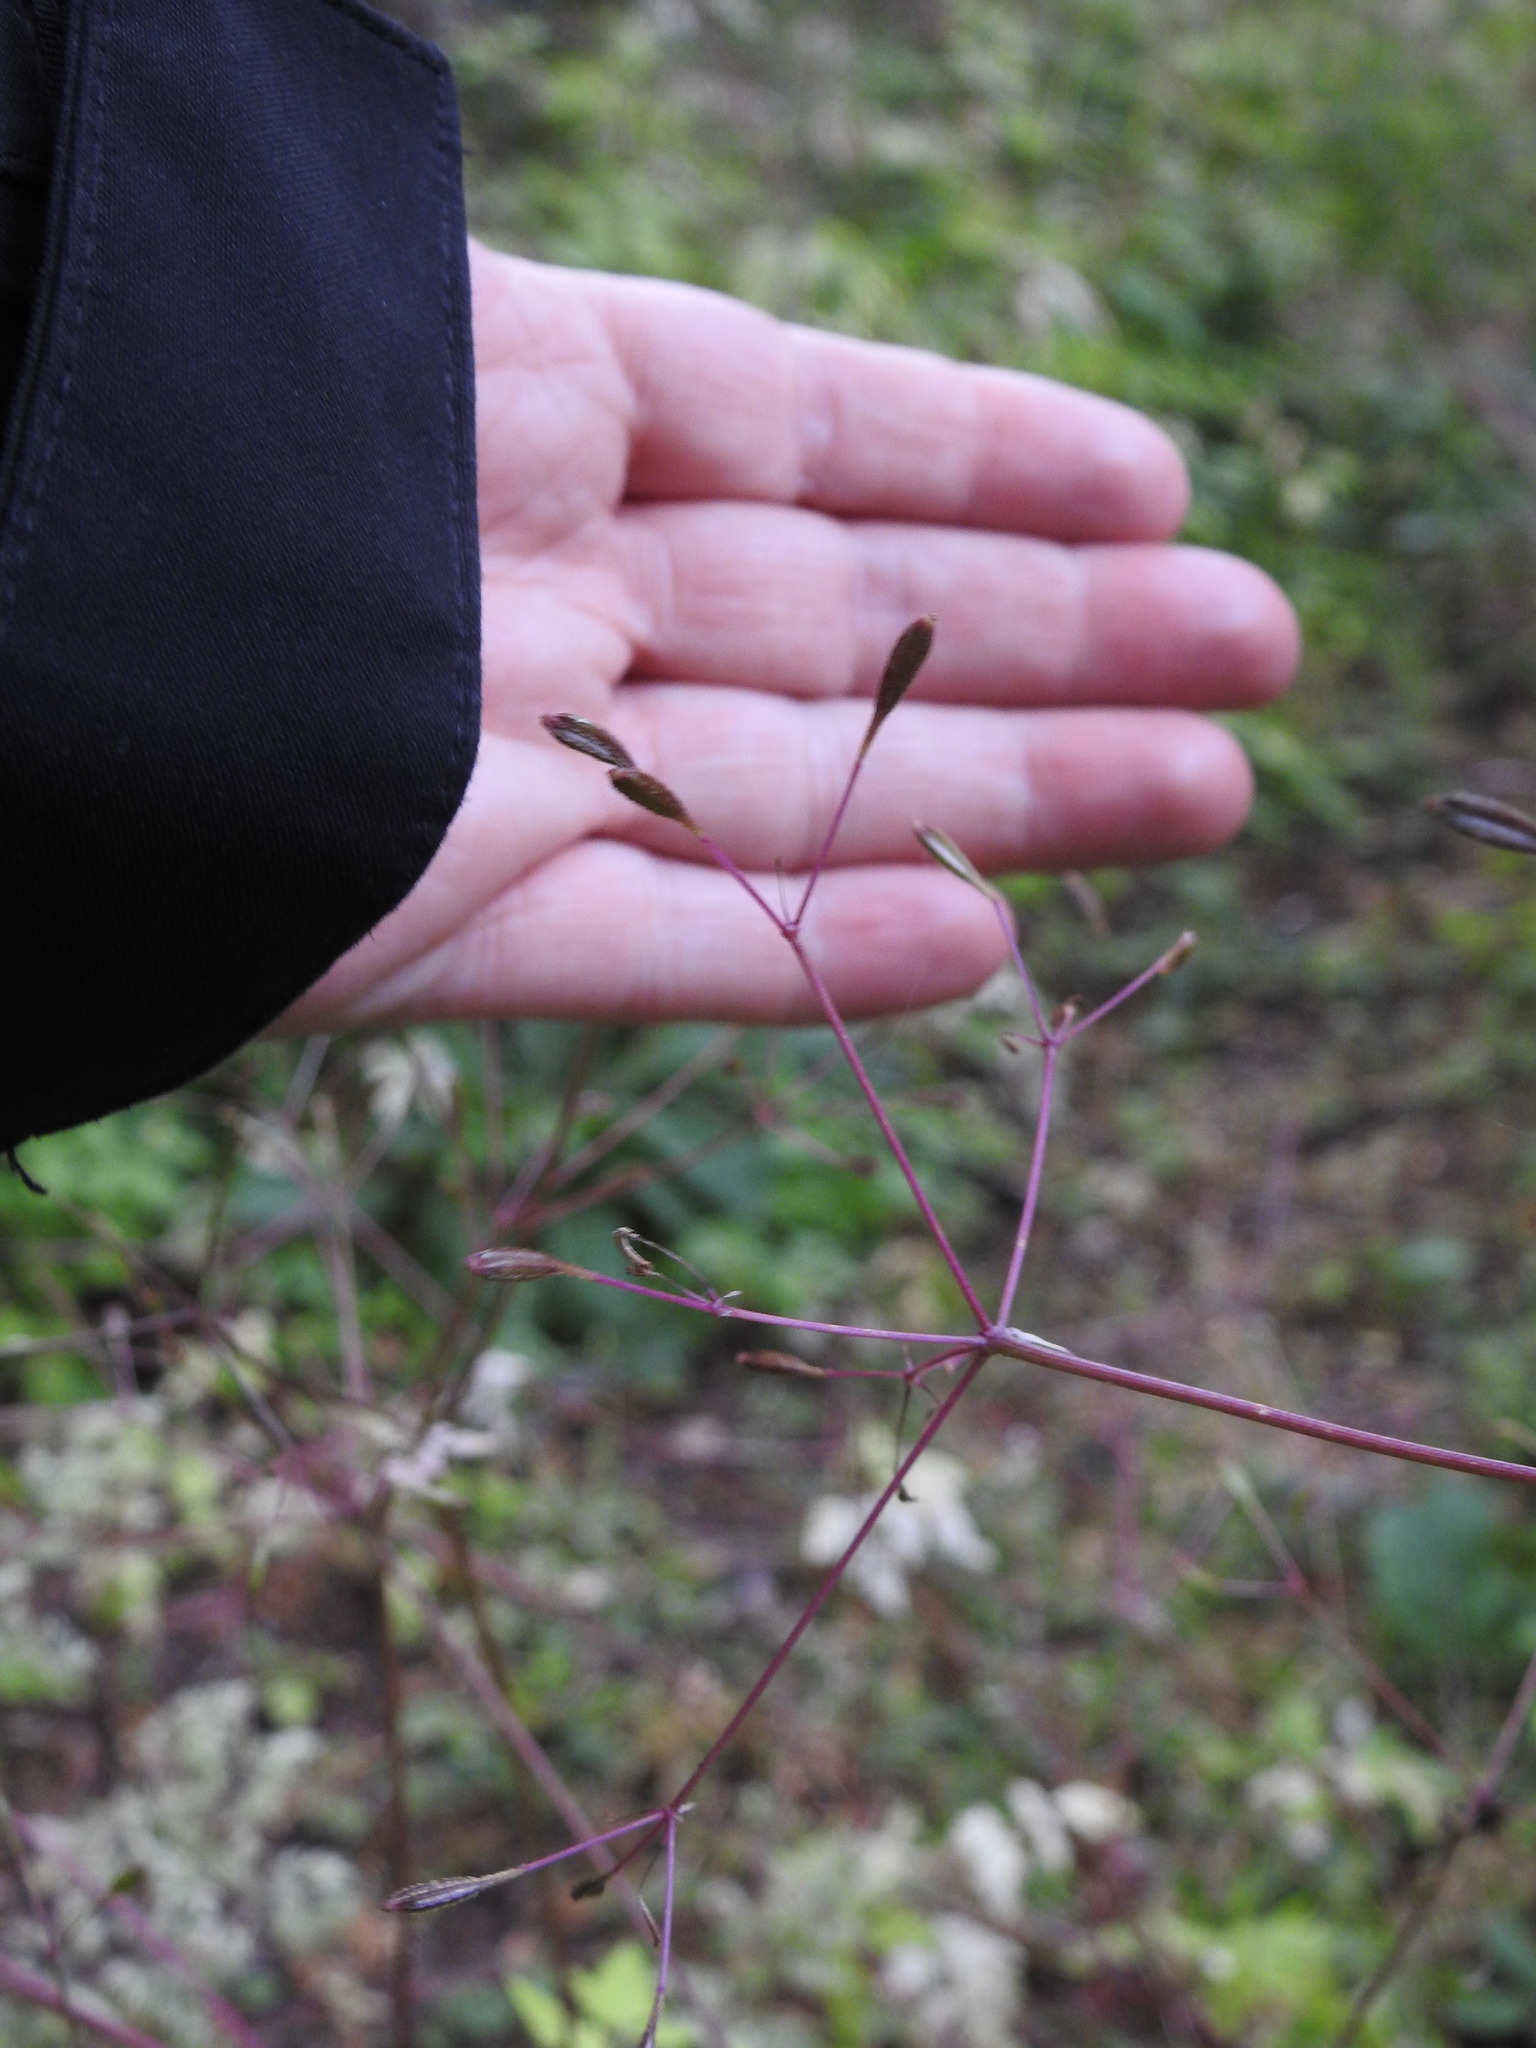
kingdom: Plantae
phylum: Tracheophyta
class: Magnoliopsida
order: Apiales
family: Apiaceae
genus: Osmorhiza
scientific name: Osmorhiza depauperata
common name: Blunt sweet cicely
